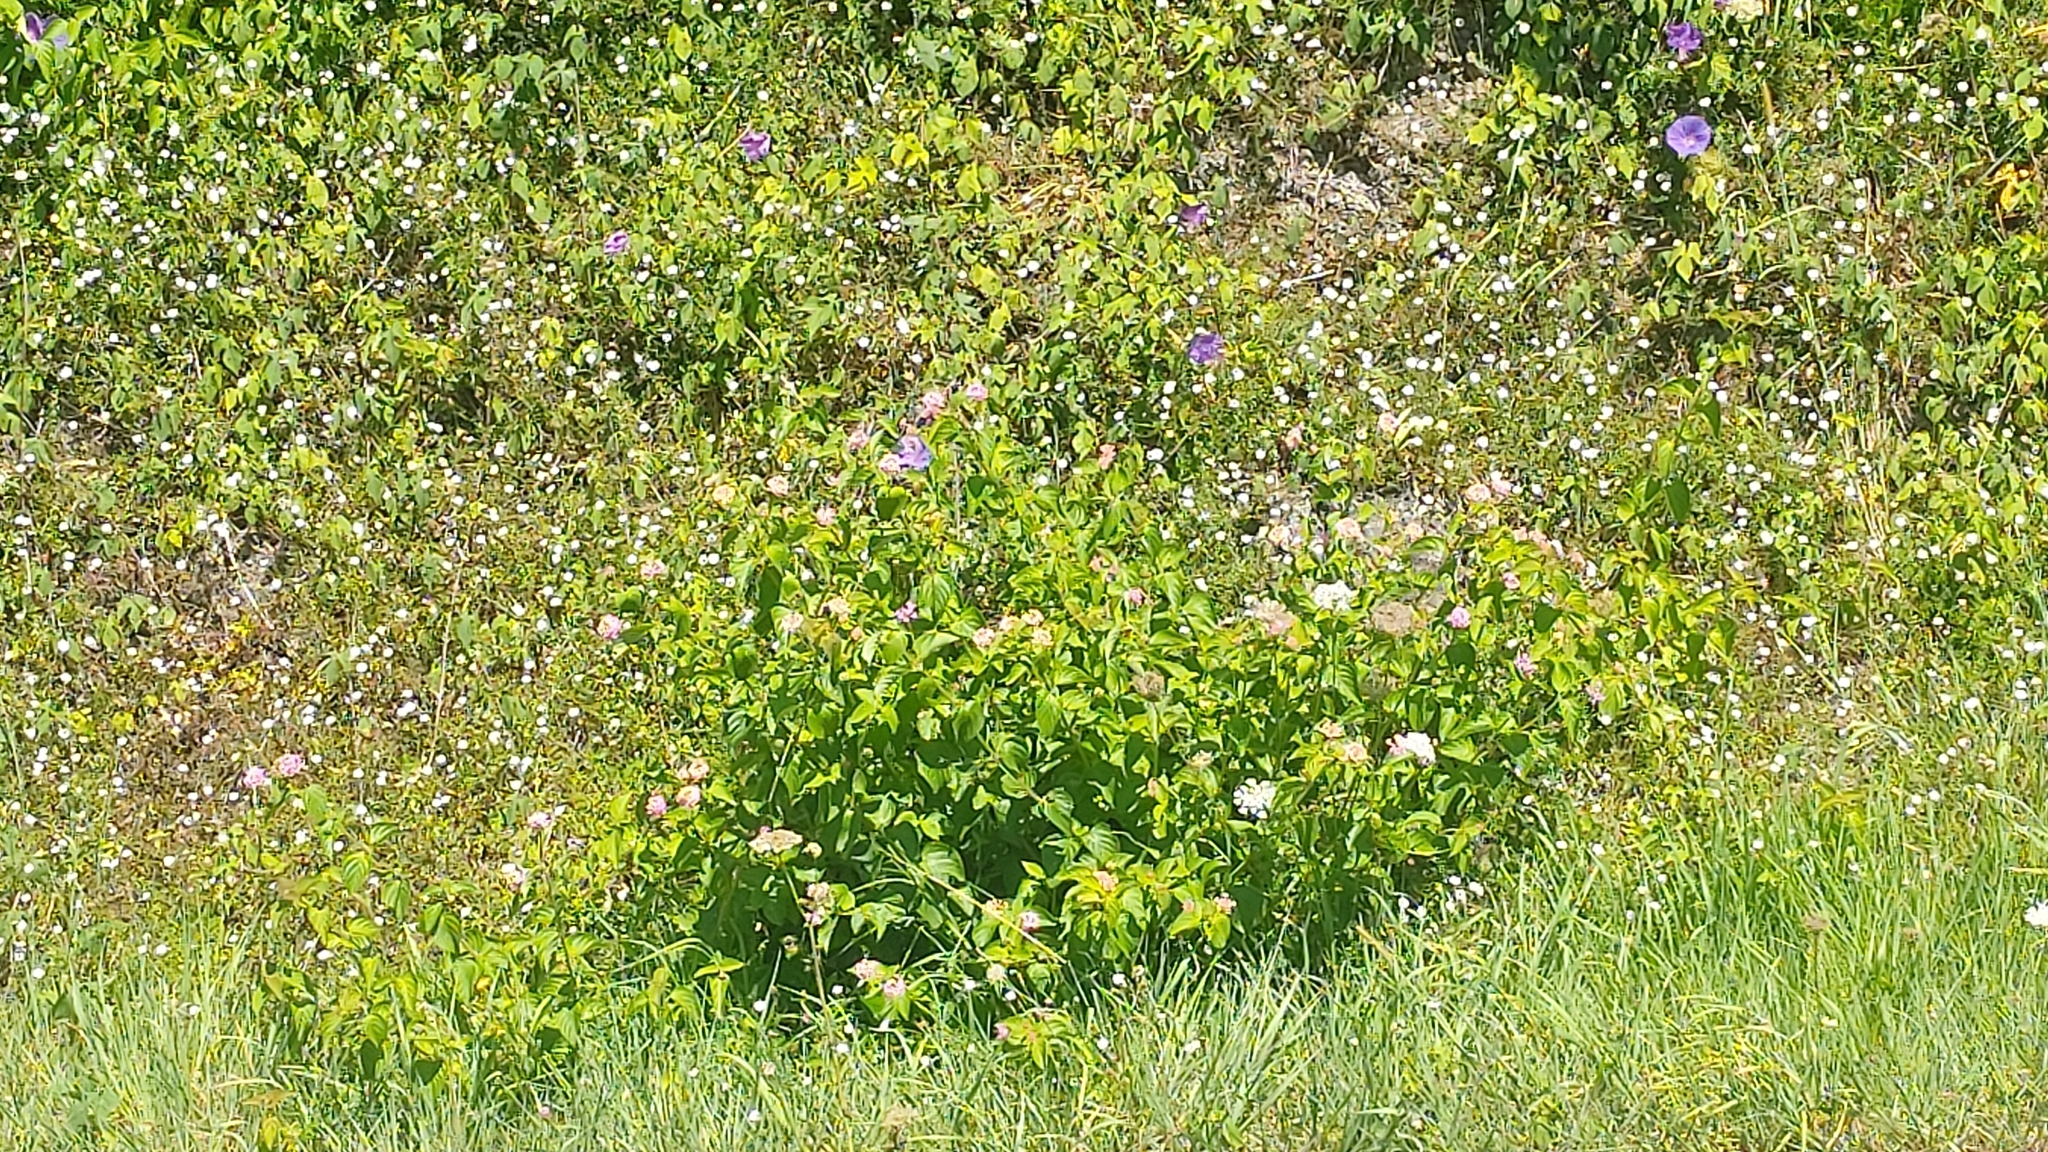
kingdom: Plantae
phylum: Tracheophyta
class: Magnoliopsida
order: Solanales
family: Convolvulaceae
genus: Ipomoea
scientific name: Ipomoea indica
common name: Blue dawnflower
